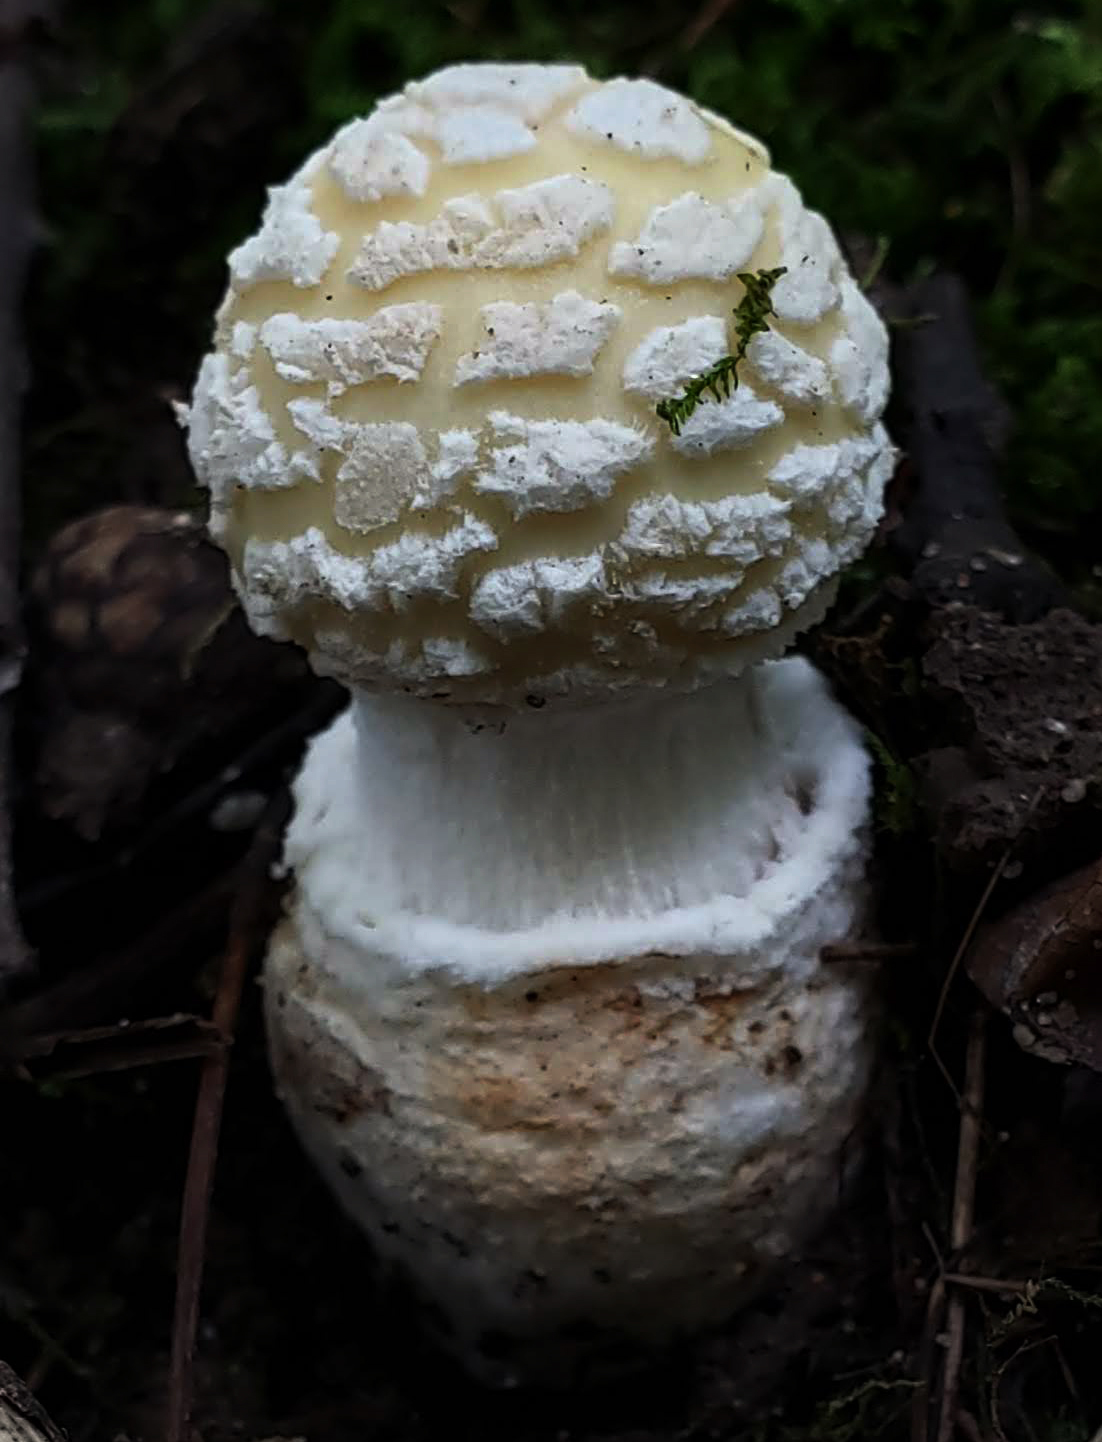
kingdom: Fungi
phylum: Basidiomycota
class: Agaricomycetes
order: Agaricales
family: Amanitaceae
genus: Amanita
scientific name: Amanita velatipes
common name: Great funnel-veil amanita
